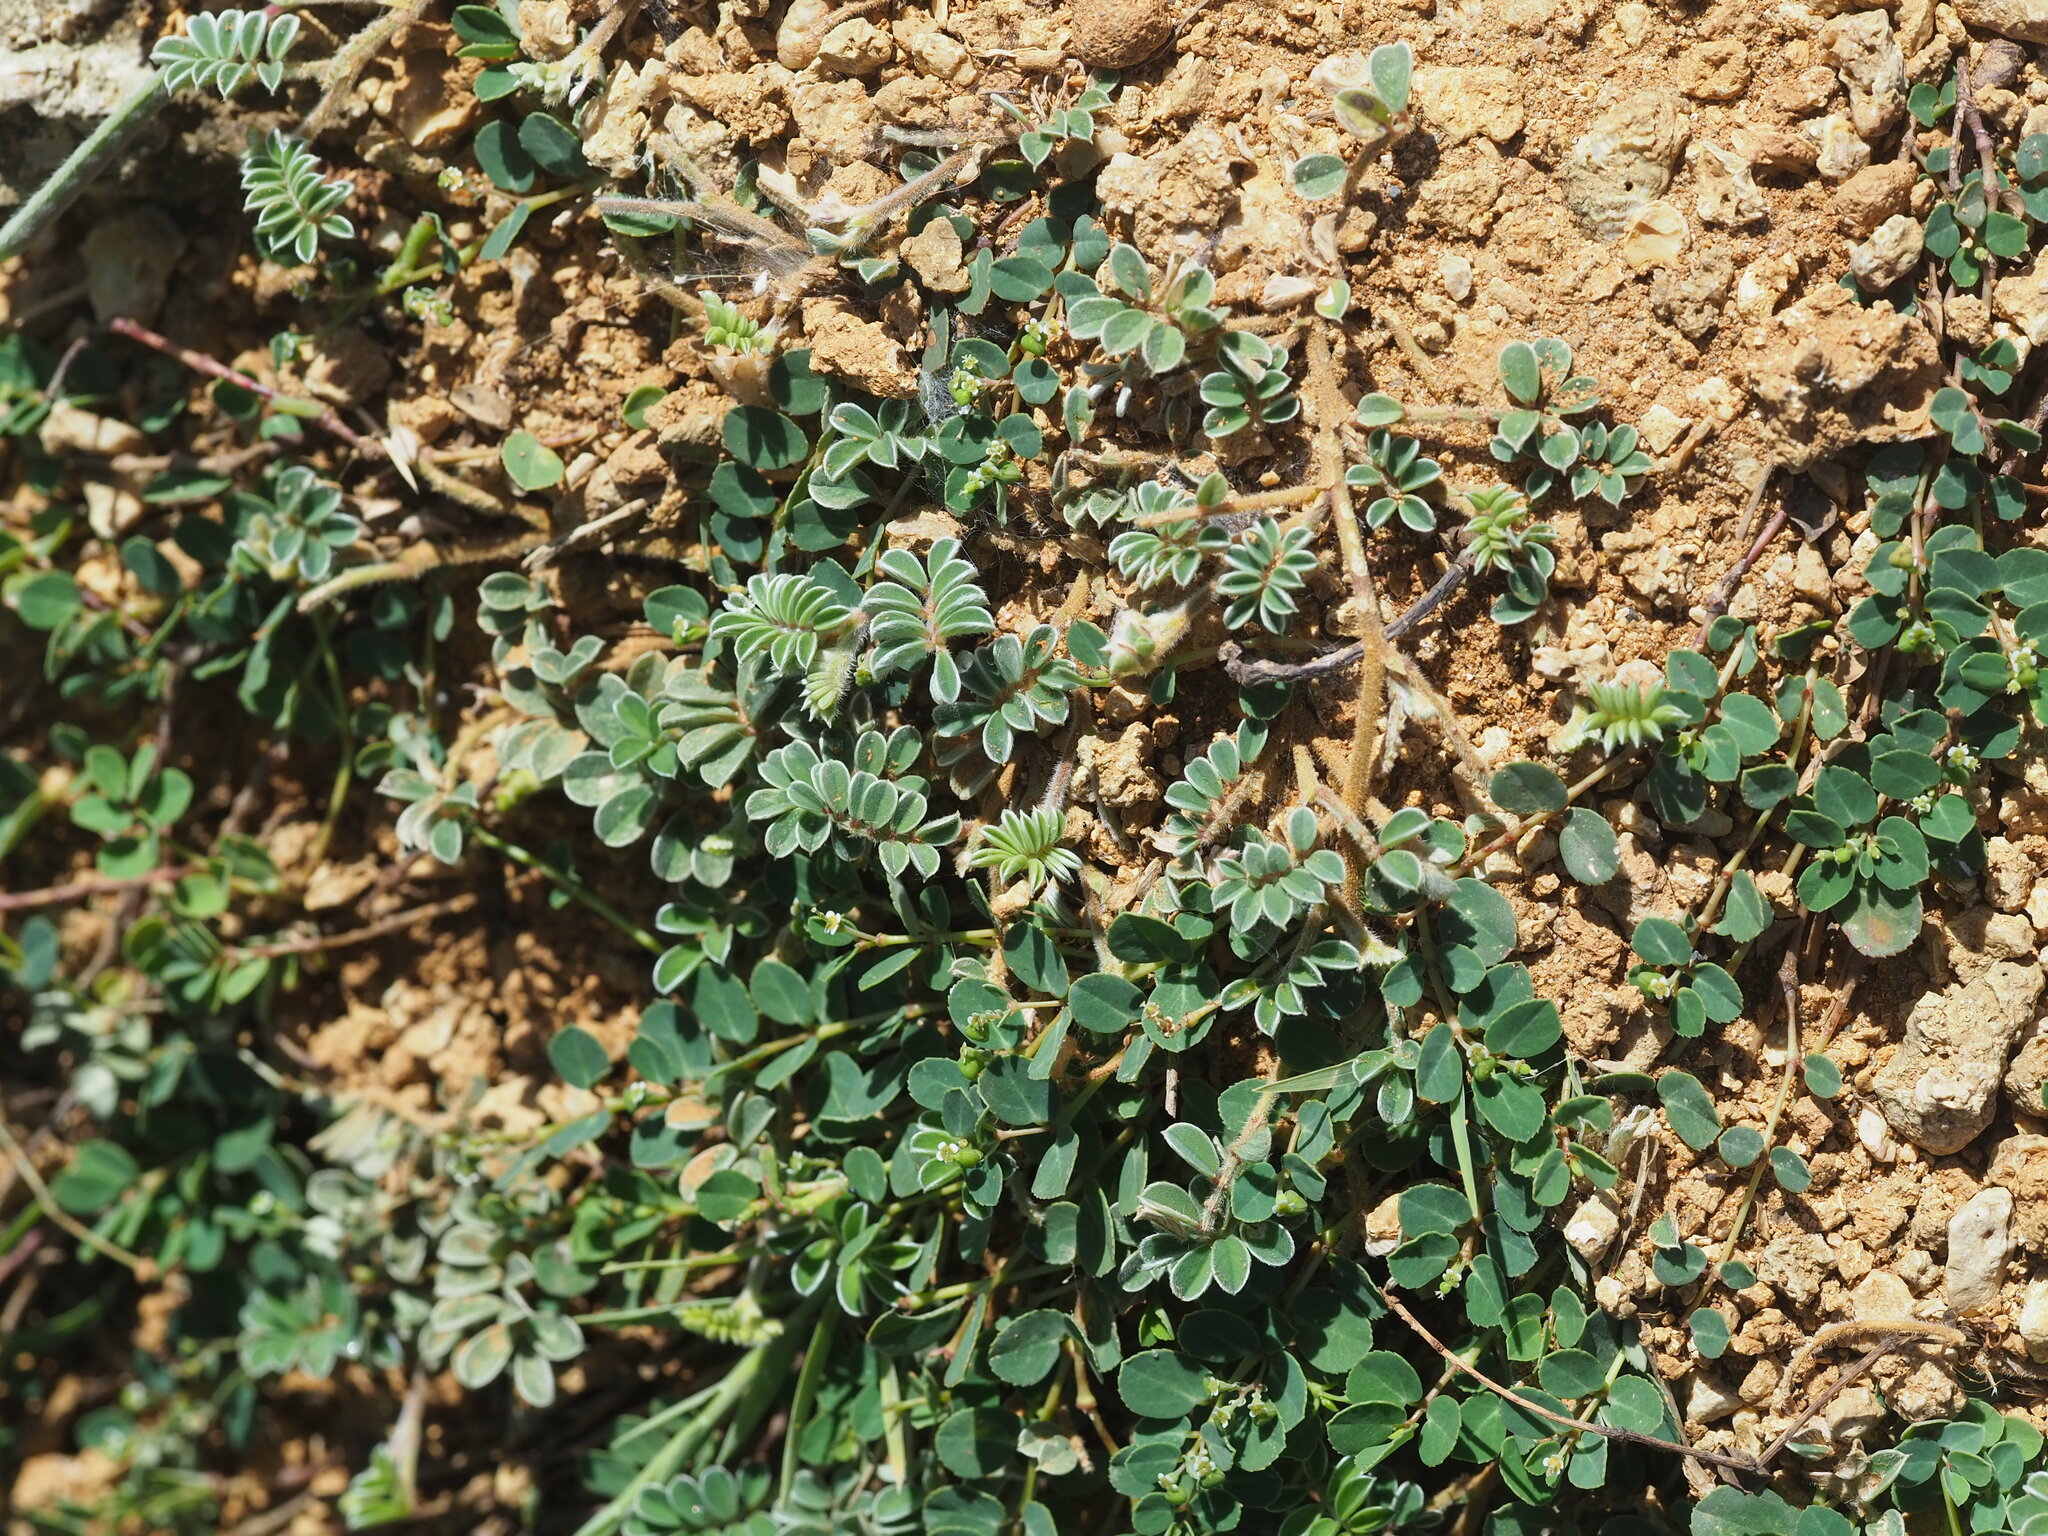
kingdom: Plantae
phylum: Tracheophyta
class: Magnoliopsida
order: Fabales
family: Fabaceae
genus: Tephrosia
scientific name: Tephrosia obovata
